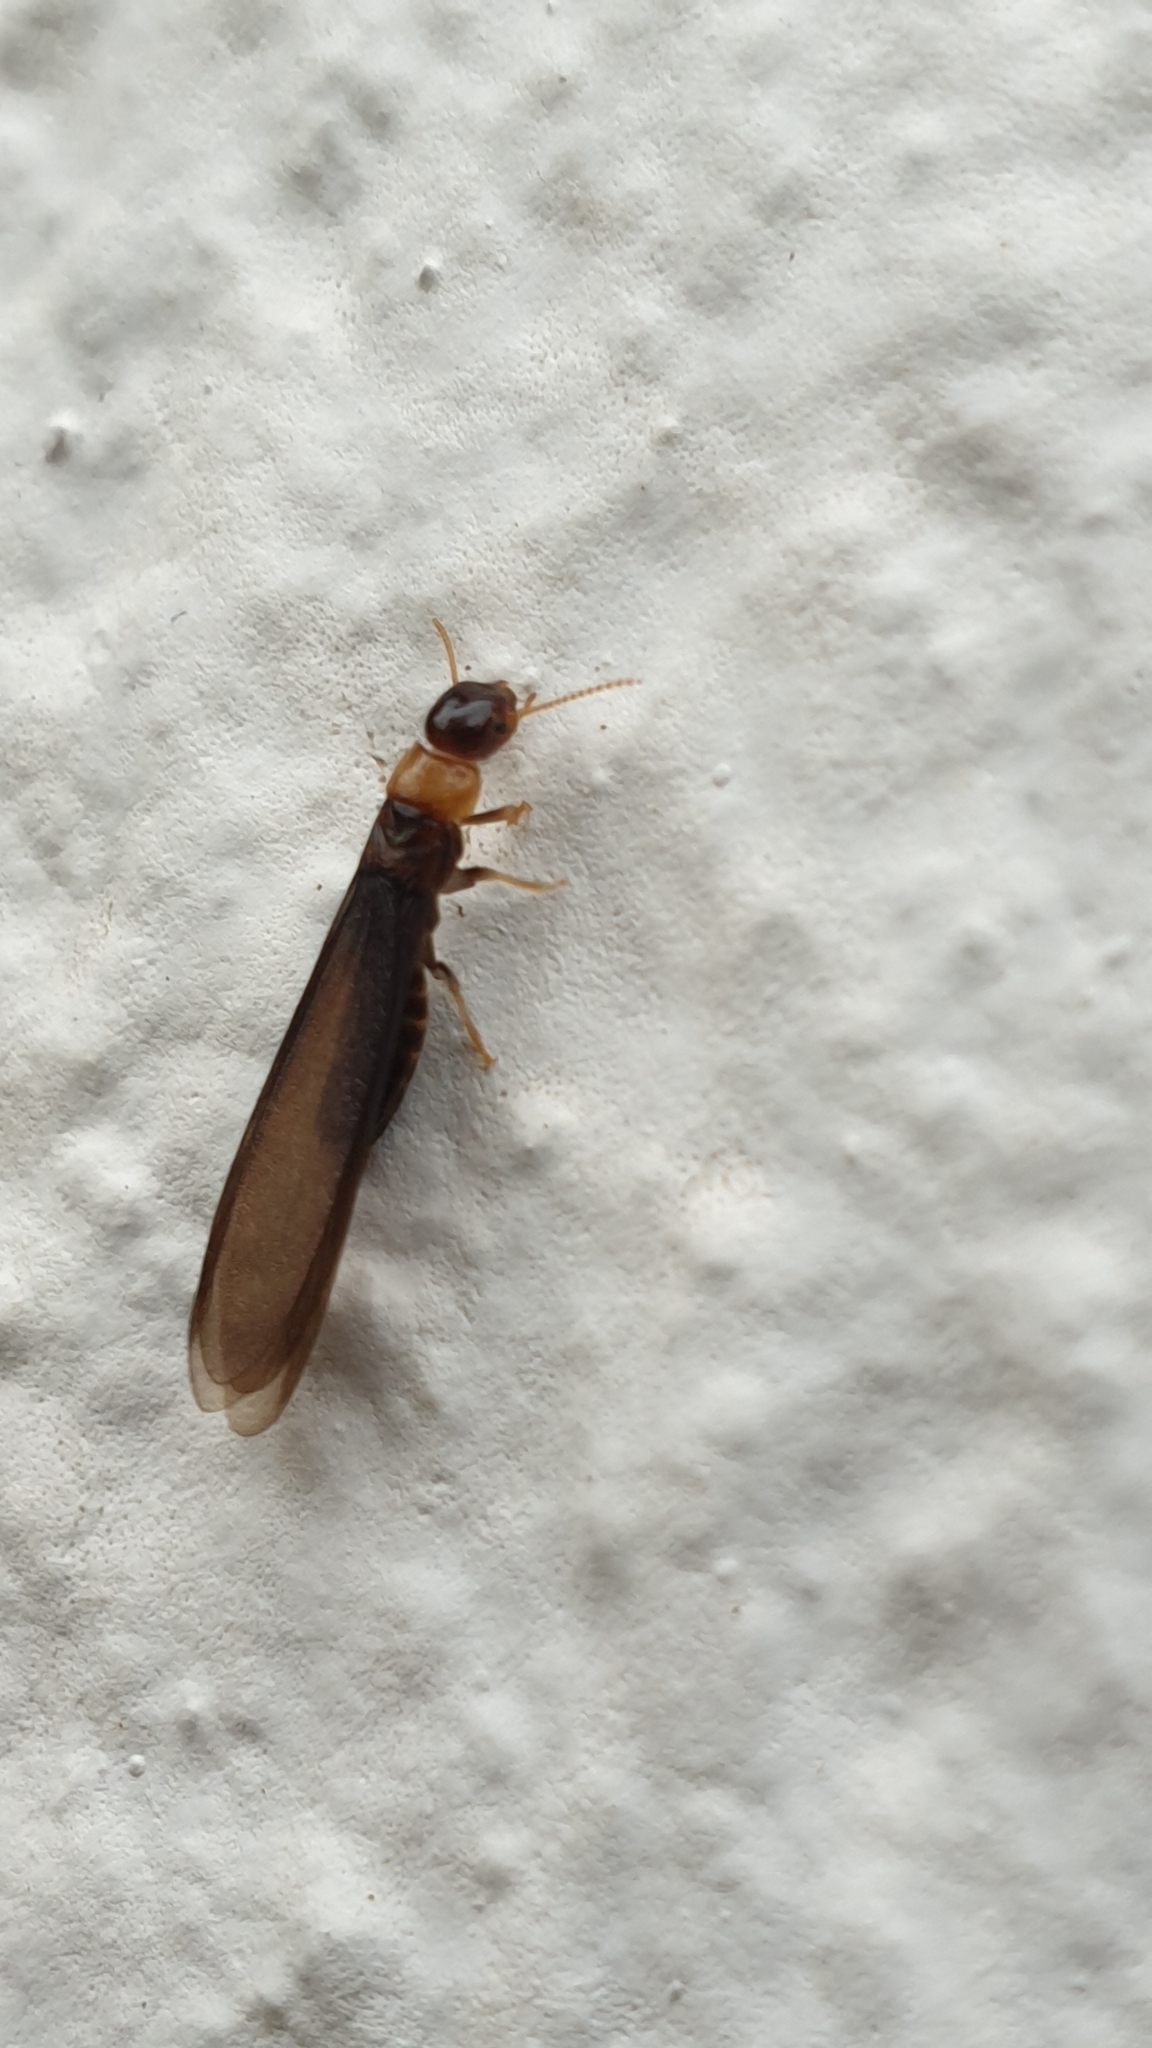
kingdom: Animalia
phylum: Arthropoda
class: Insecta
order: Blattodea
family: Kalotermitidae
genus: Kalotermes
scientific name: Kalotermes flavicollis
